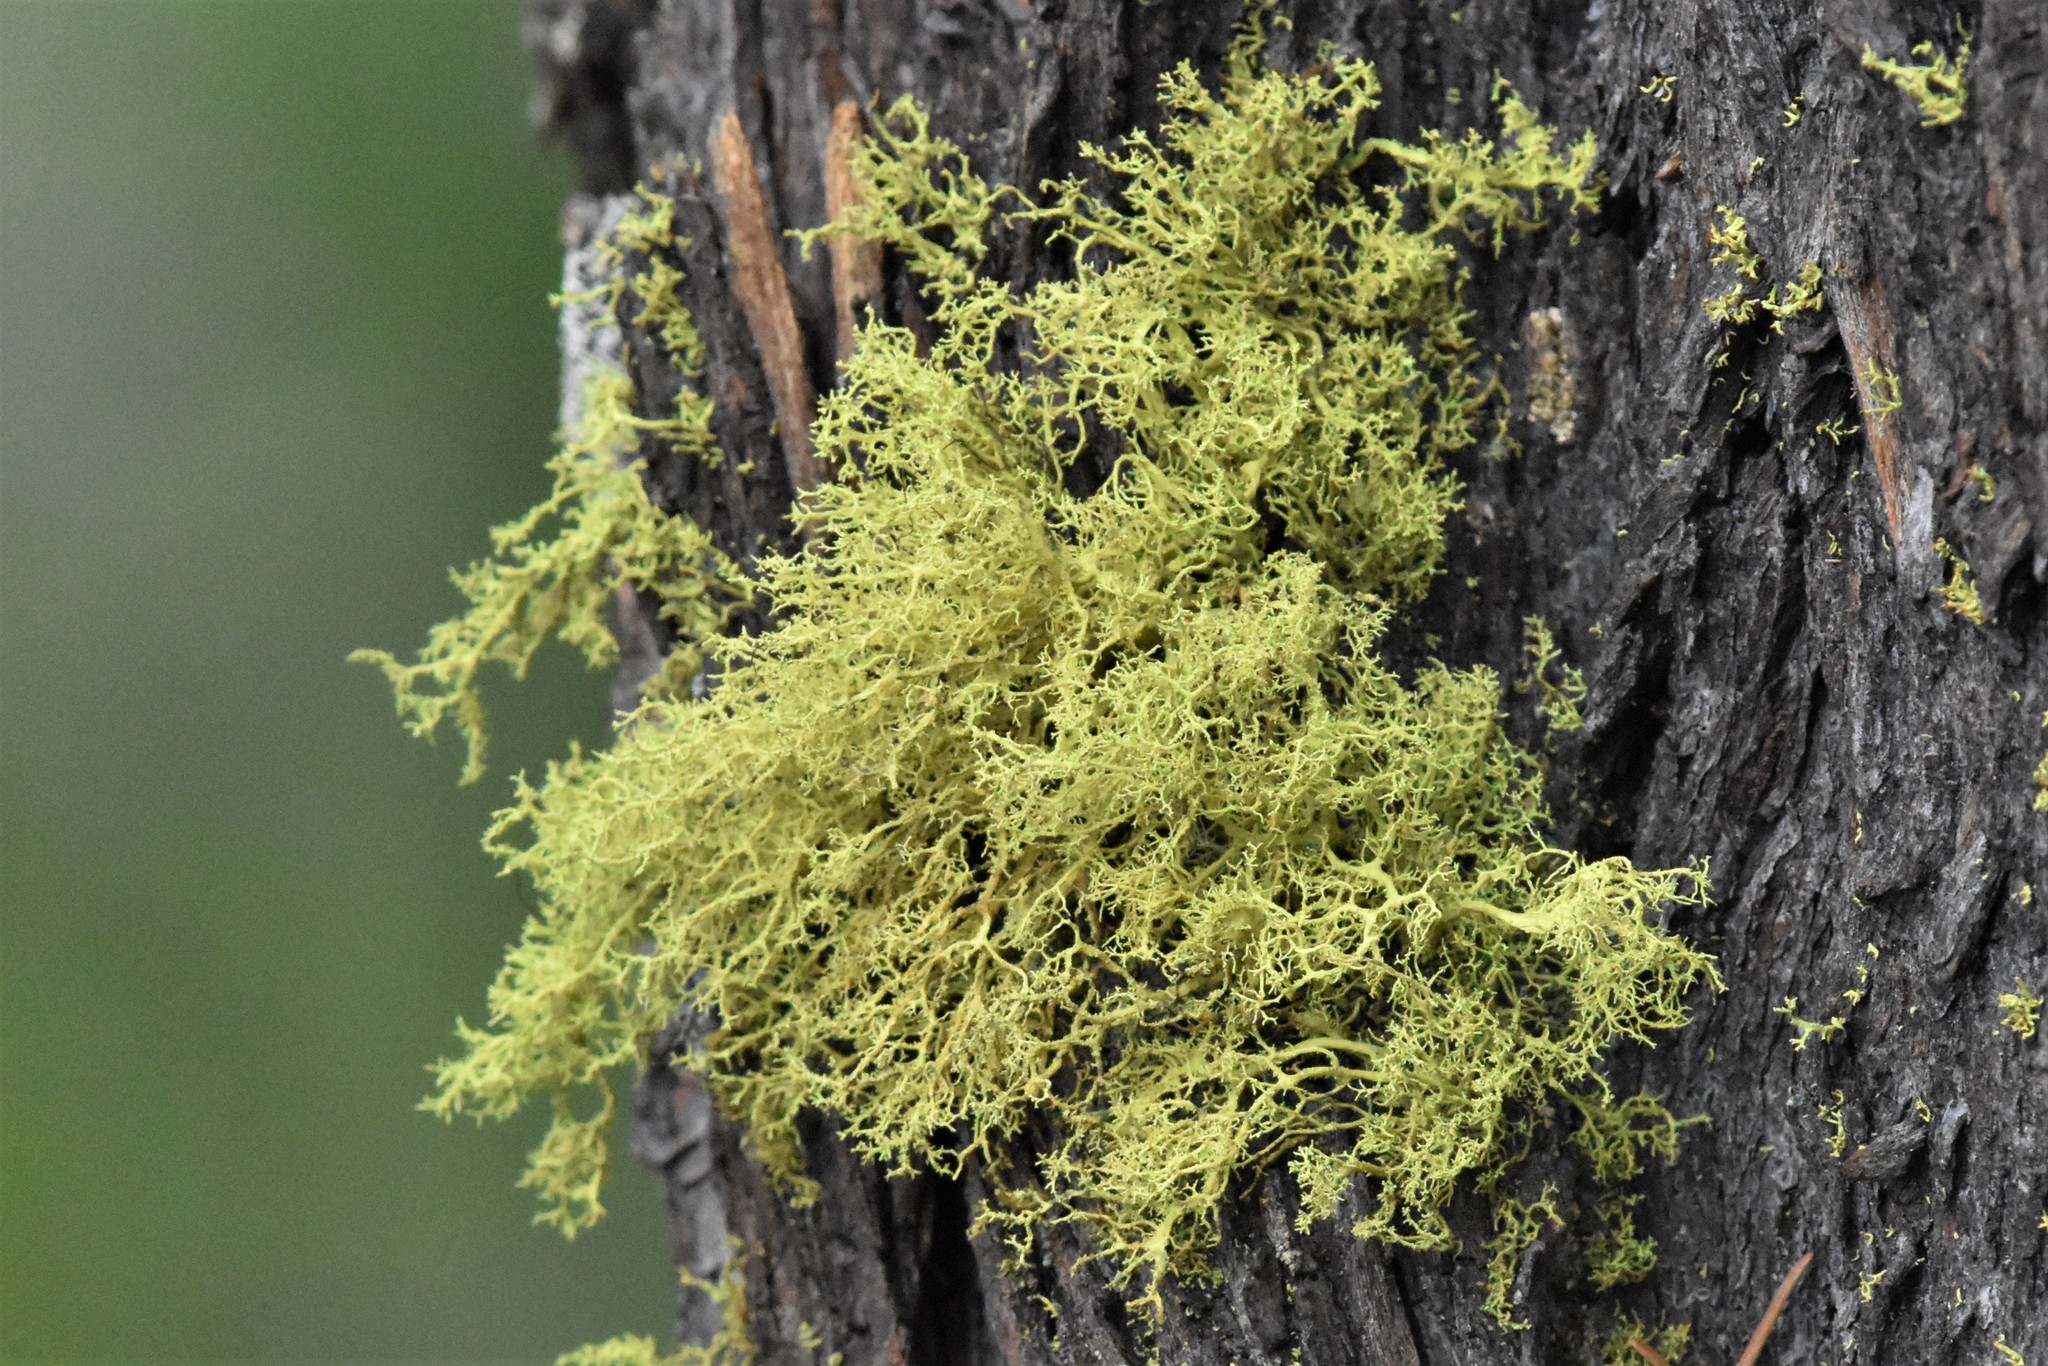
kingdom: Fungi
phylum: Ascomycota
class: Lecanoromycetes
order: Lecanorales
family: Parmeliaceae
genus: Letharia
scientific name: Letharia vulpina
